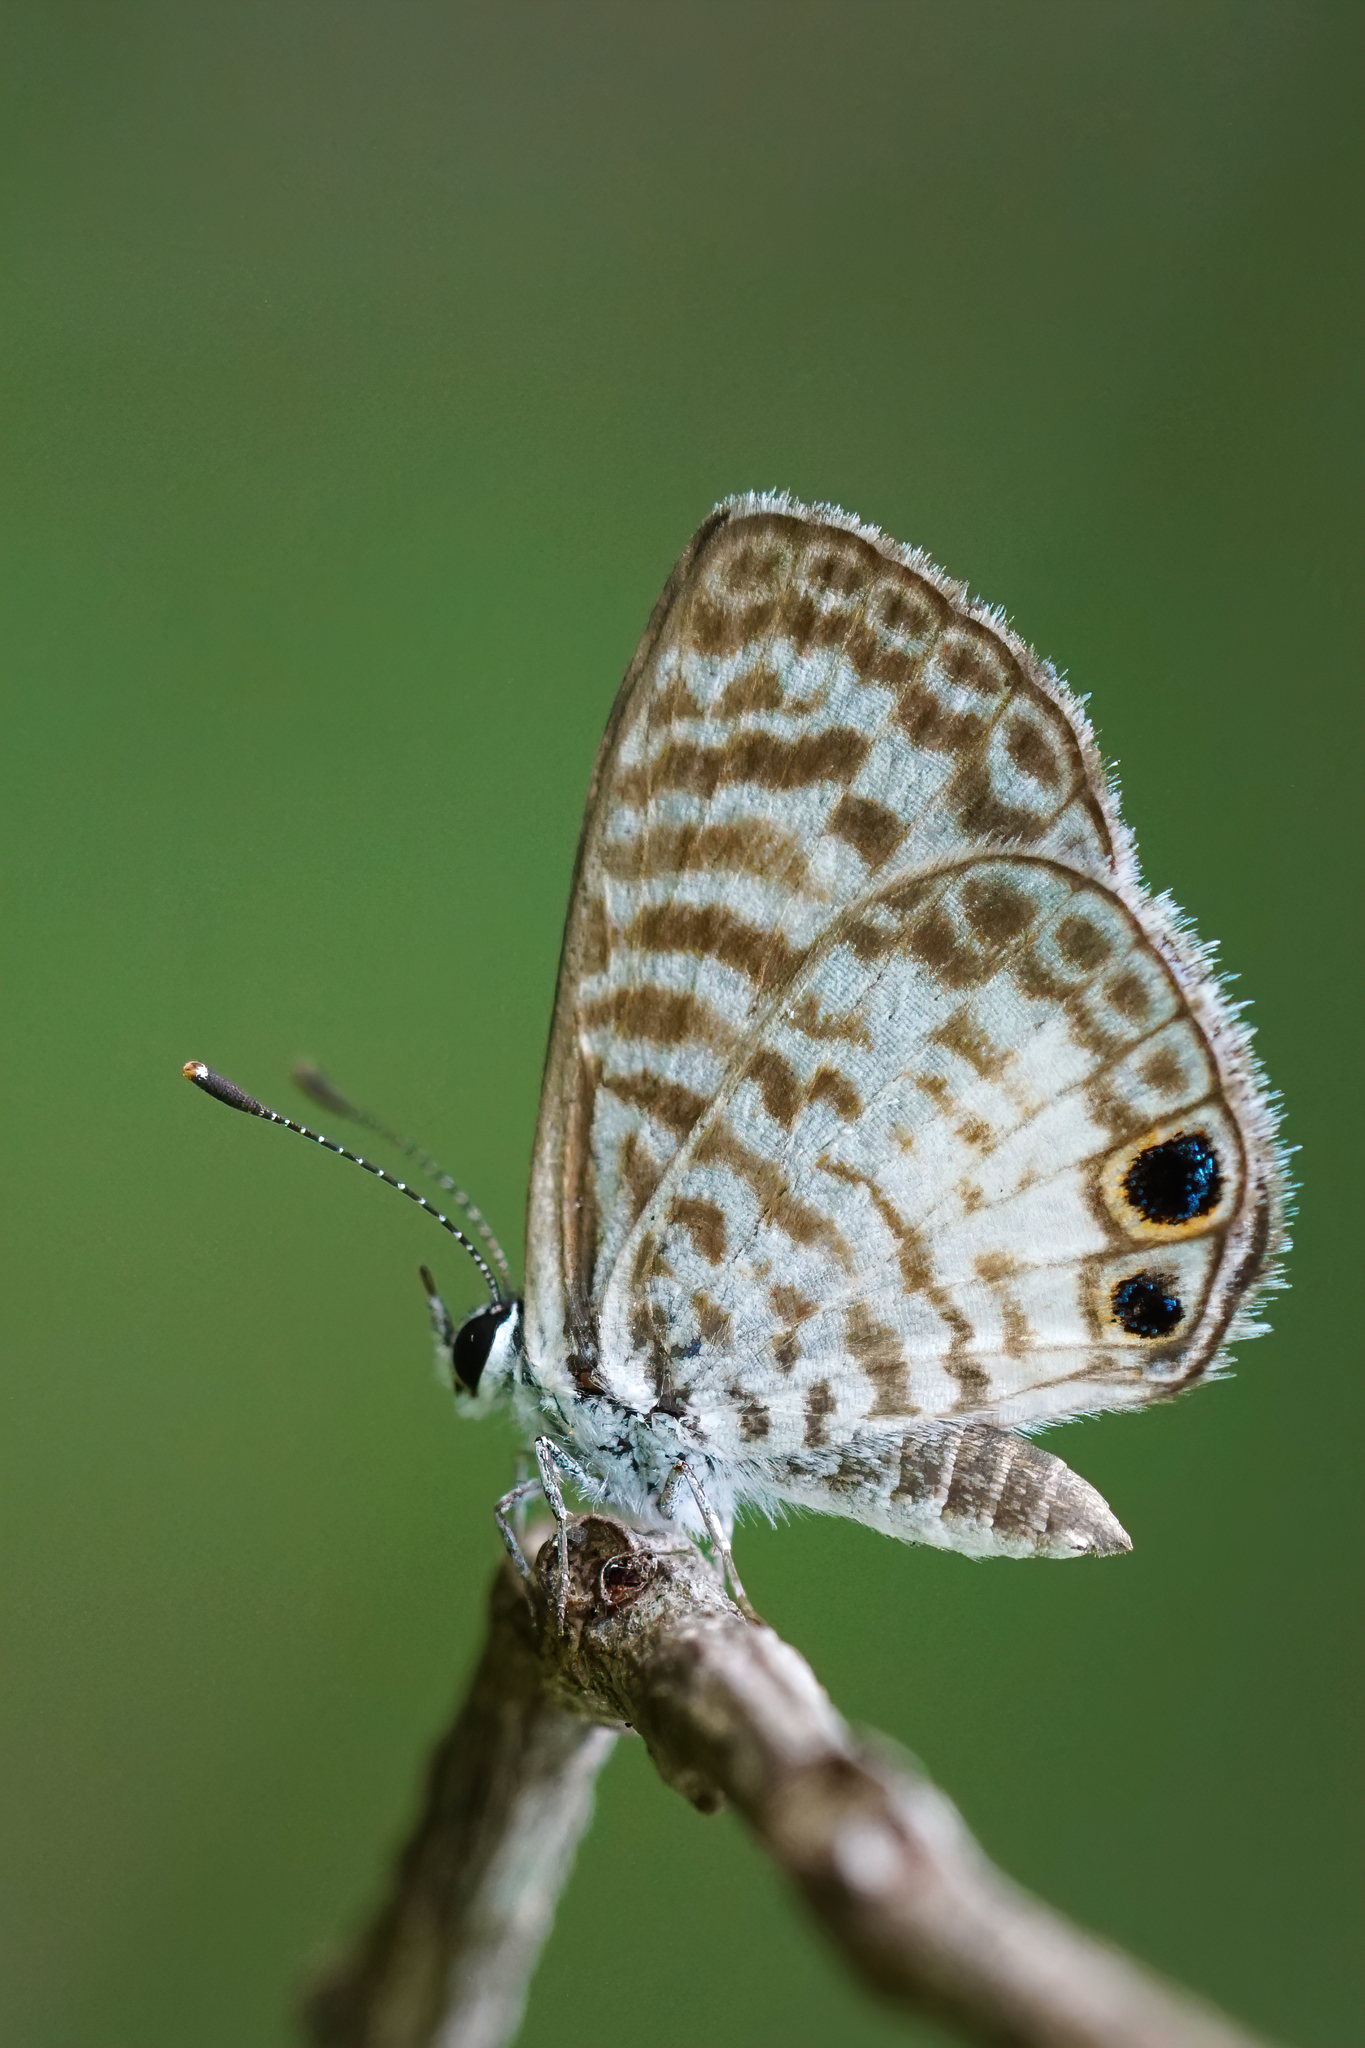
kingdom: Animalia
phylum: Arthropoda
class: Insecta
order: Lepidoptera
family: Lycaenidae
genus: Leptotes
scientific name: Leptotes cassius
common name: Cassius blue
